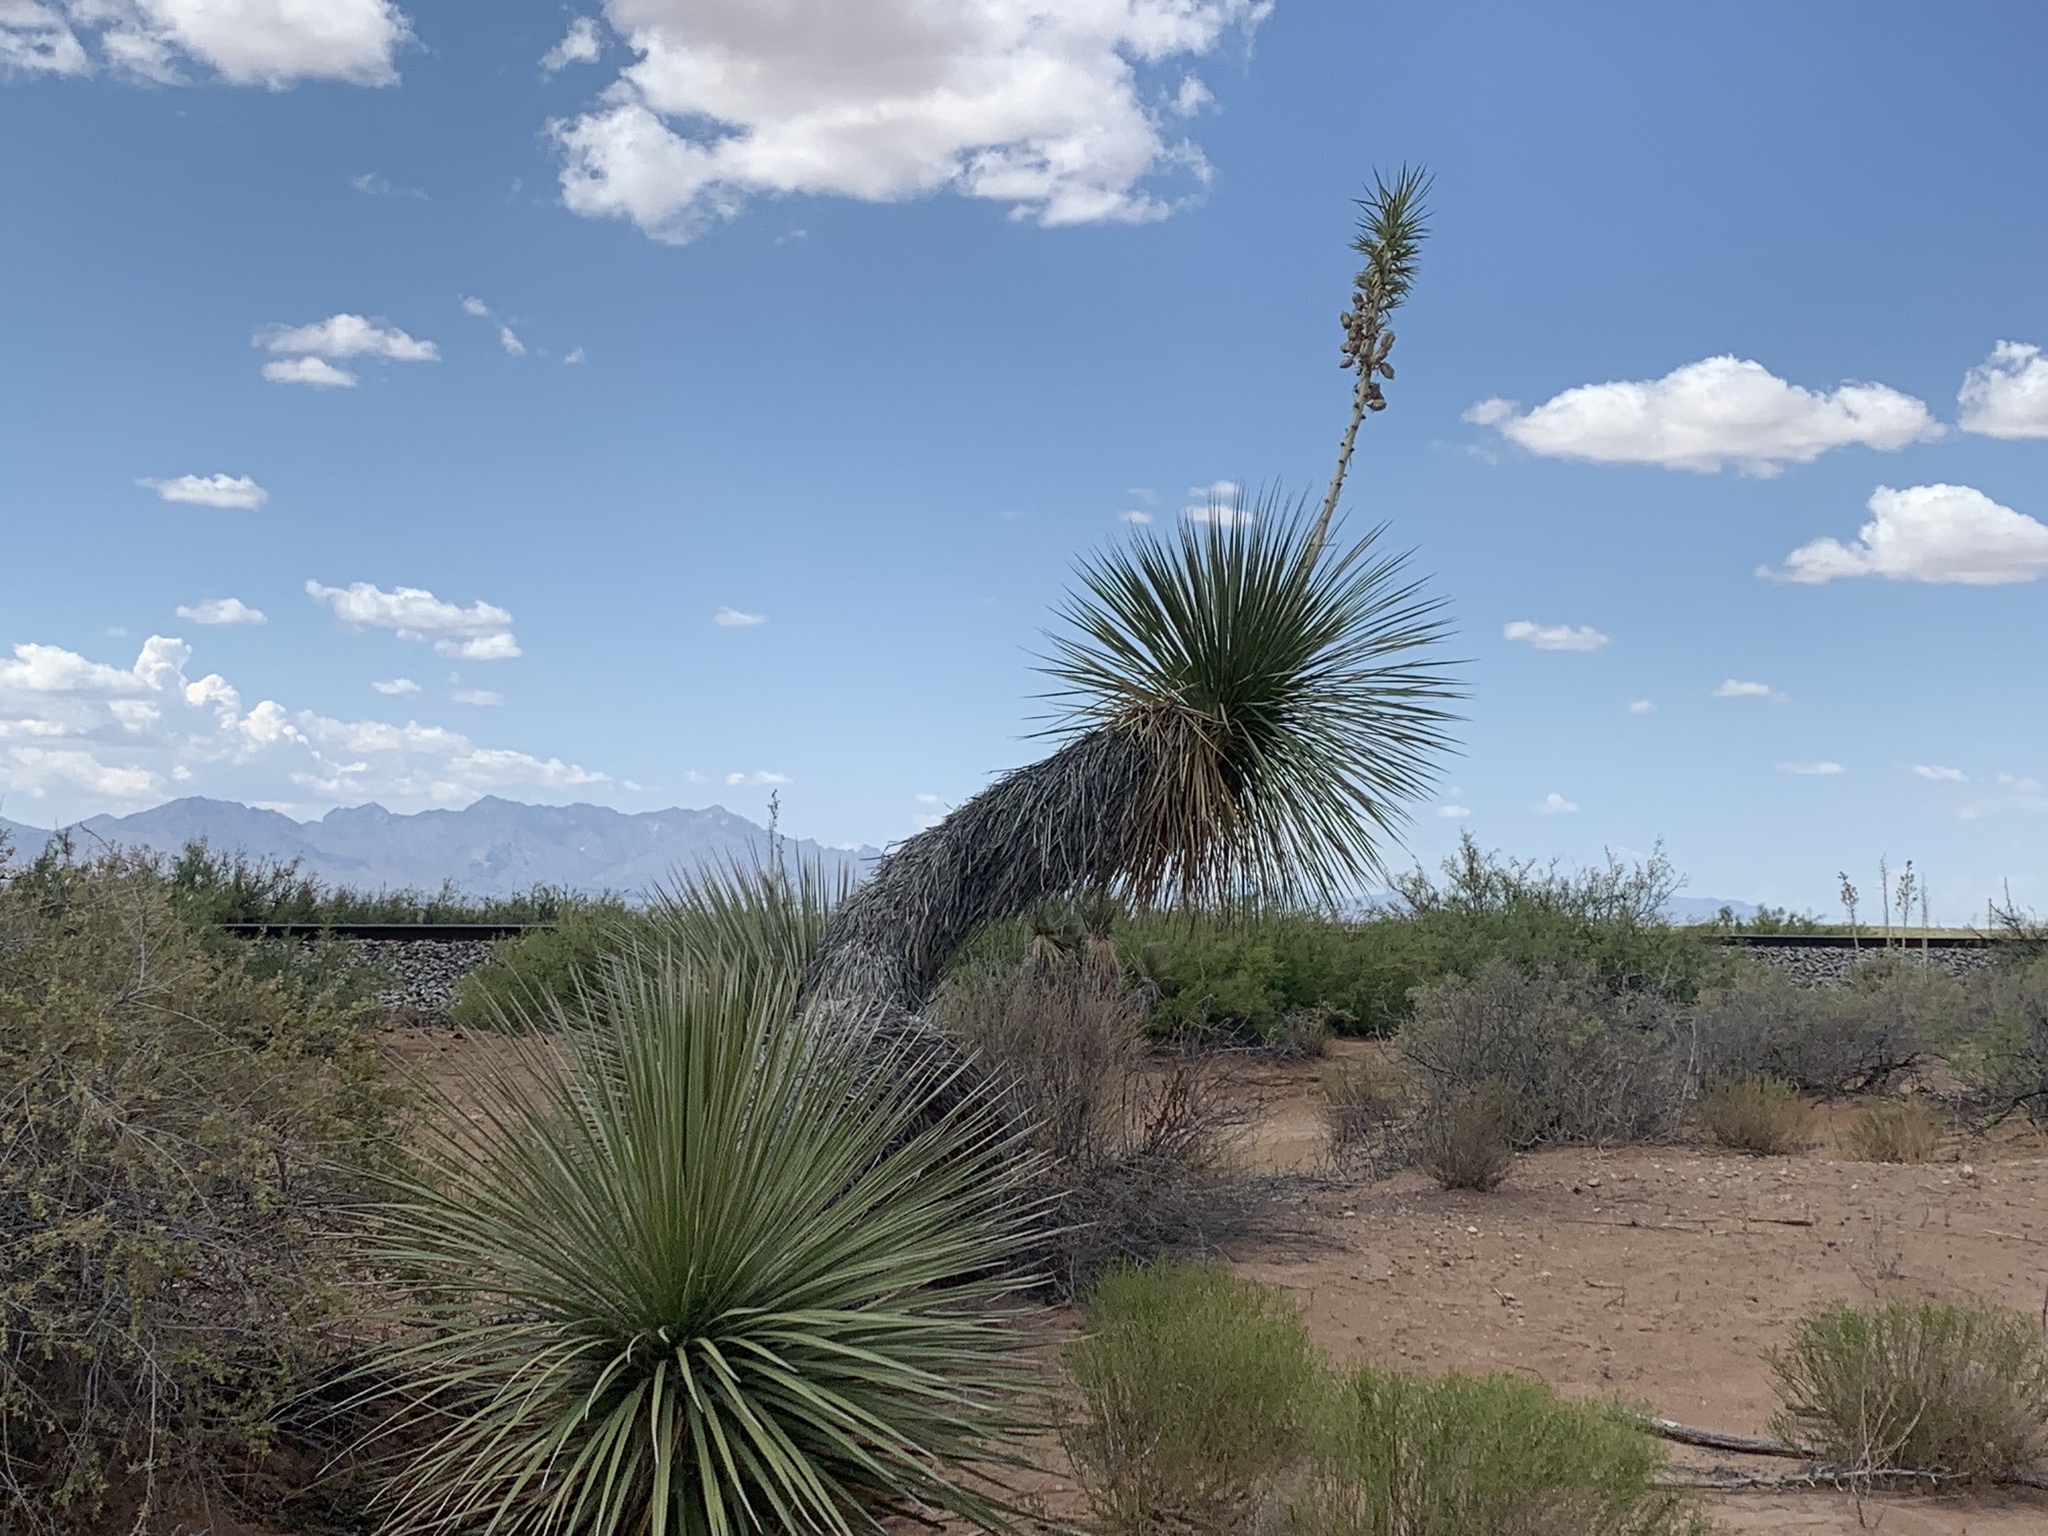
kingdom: Plantae
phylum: Tracheophyta
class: Liliopsida
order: Asparagales
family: Asparagaceae
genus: Yucca
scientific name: Yucca elata
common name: Palmella
